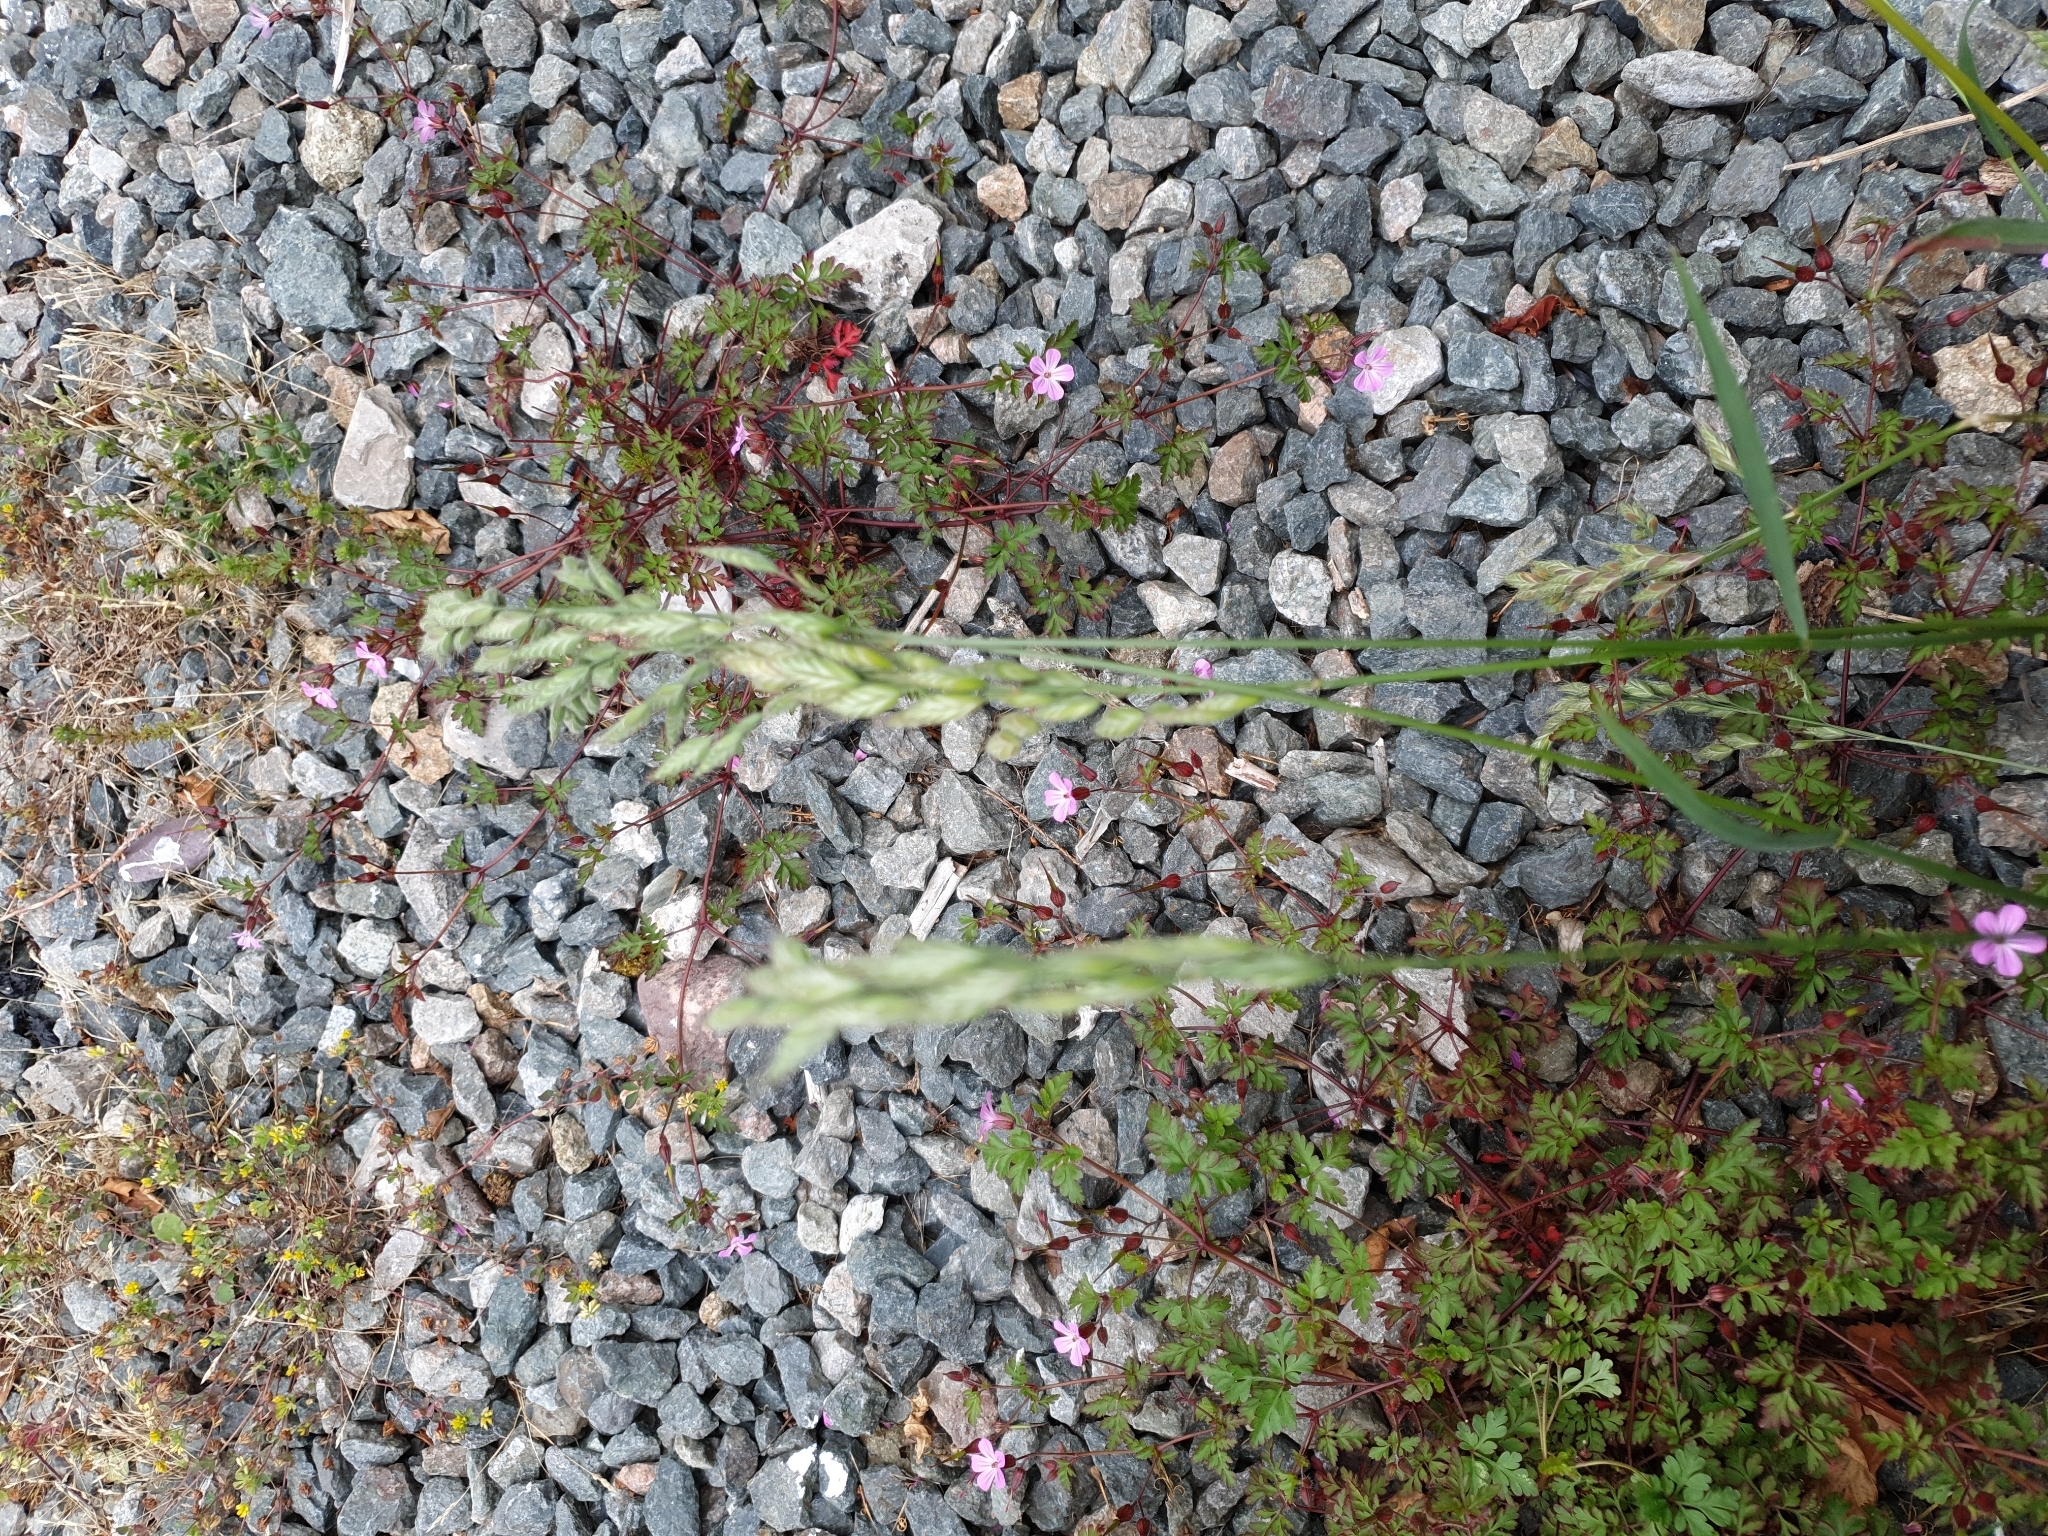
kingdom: Plantae
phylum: Tracheophyta
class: Liliopsida
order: Poales
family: Poaceae
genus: Bromus
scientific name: Bromus hordeaceus
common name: Soft brome
